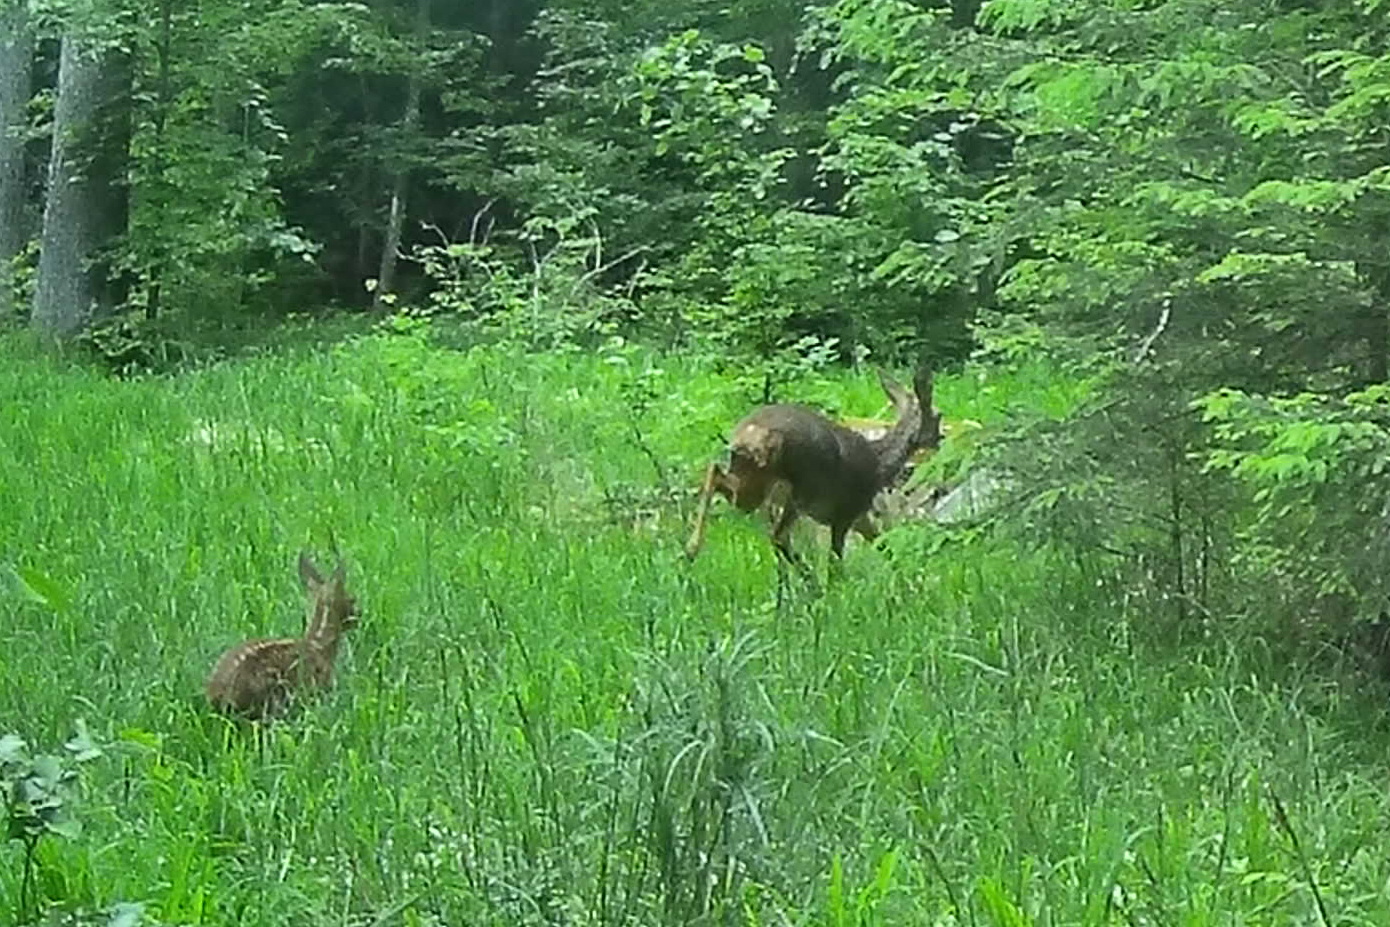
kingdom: Animalia
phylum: Chordata
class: Mammalia
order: Artiodactyla
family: Cervidae
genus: Capreolus
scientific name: Capreolus capreolus
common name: Western roe deer
